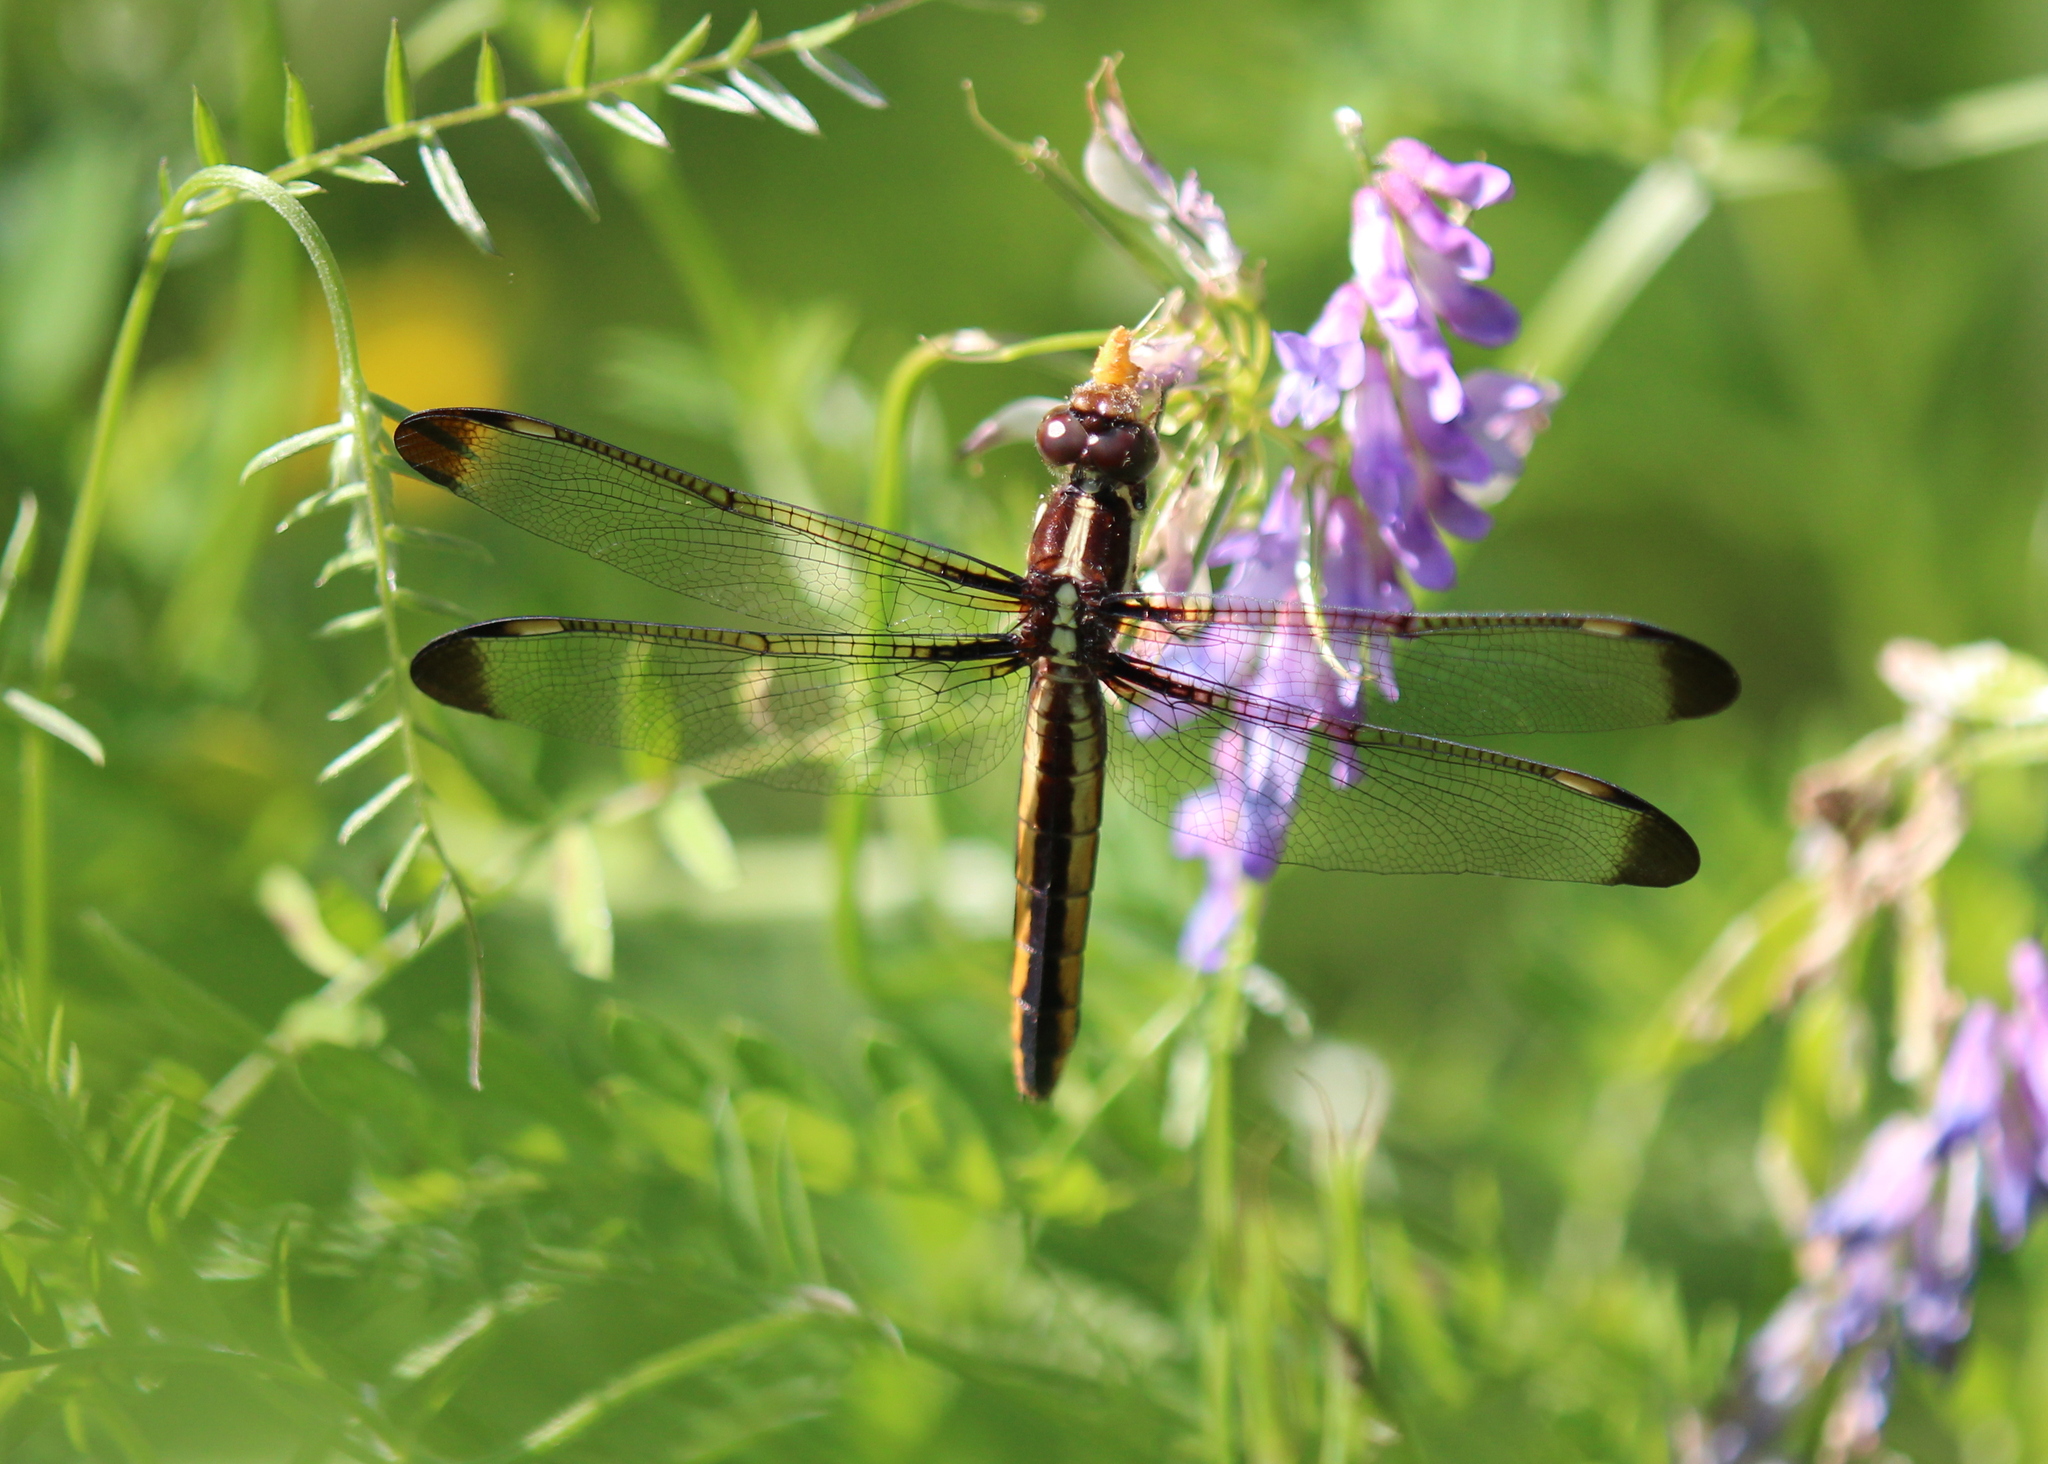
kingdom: Animalia
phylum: Arthropoda
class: Insecta
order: Odonata
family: Libellulidae
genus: Libellula
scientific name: Libellula cyanea
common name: Spangled skimmer
